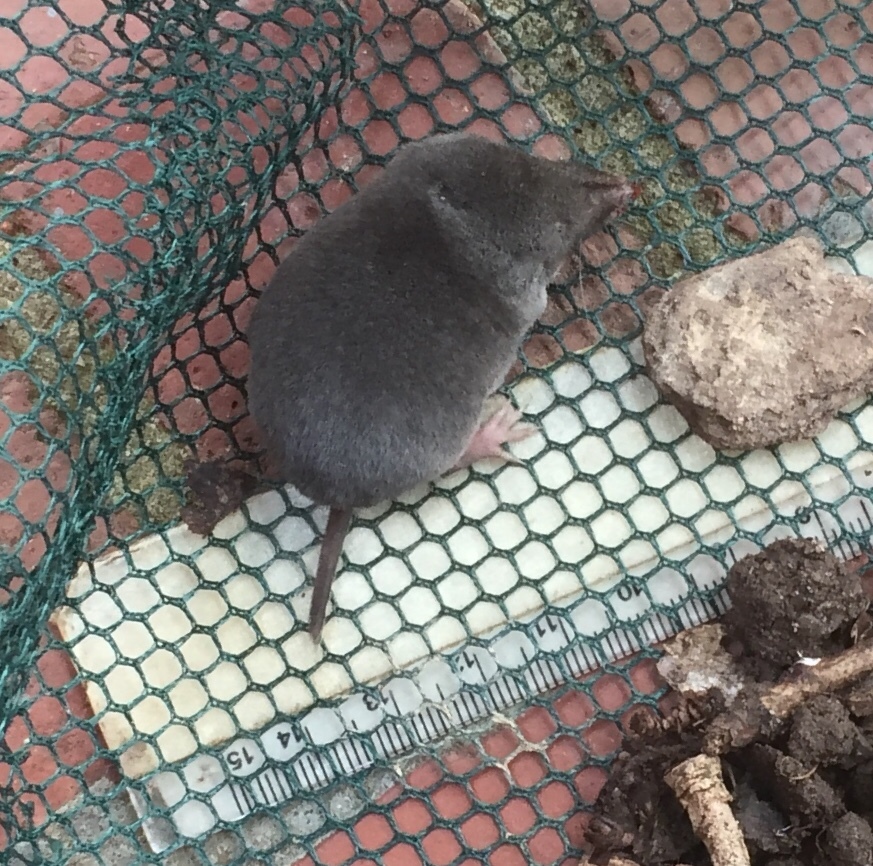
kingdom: Animalia
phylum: Chordata
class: Mammalia
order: Soricomorpha
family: Soricidae
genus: Blarina
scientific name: Blarina carolinensis
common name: Southern short-tailed shrew
